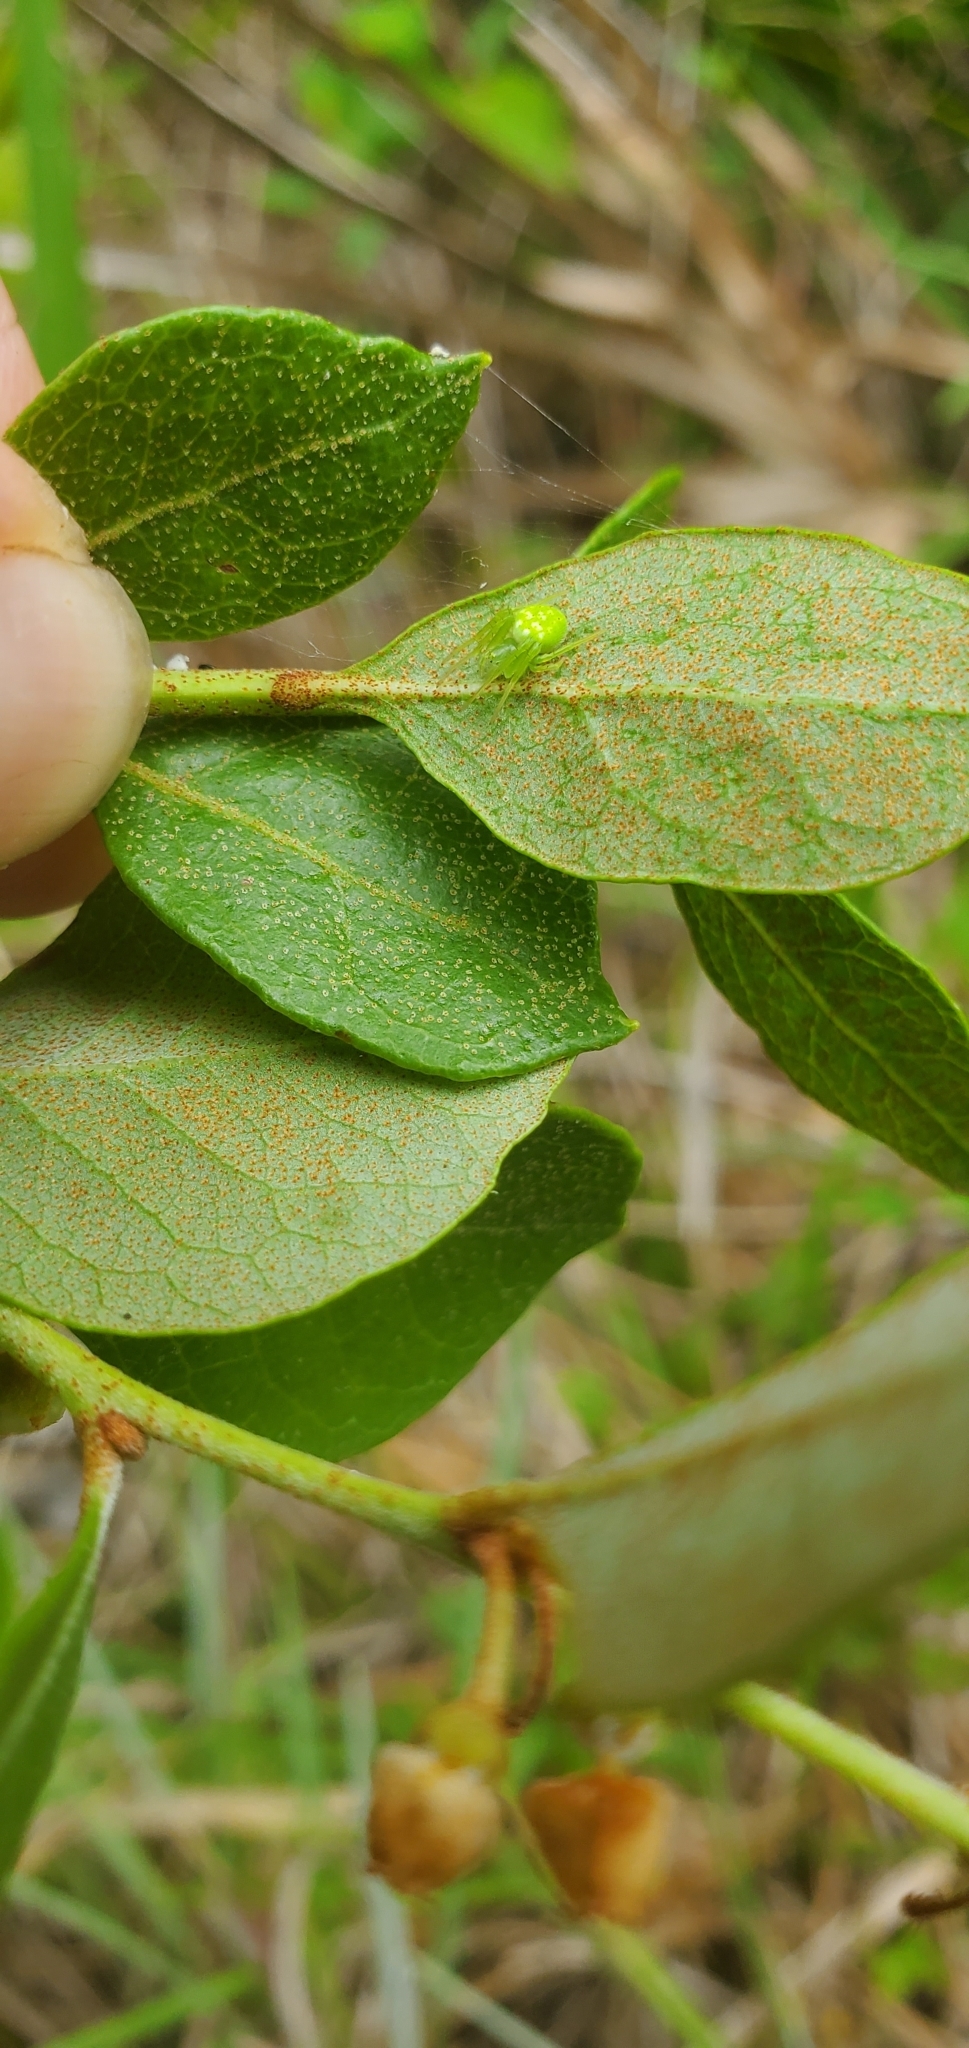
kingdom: Plantae
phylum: Tracheophyta
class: Magnoliopsida
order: Ericales
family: Ericaceae
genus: Lyonia
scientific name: Lyonia fruticosa
